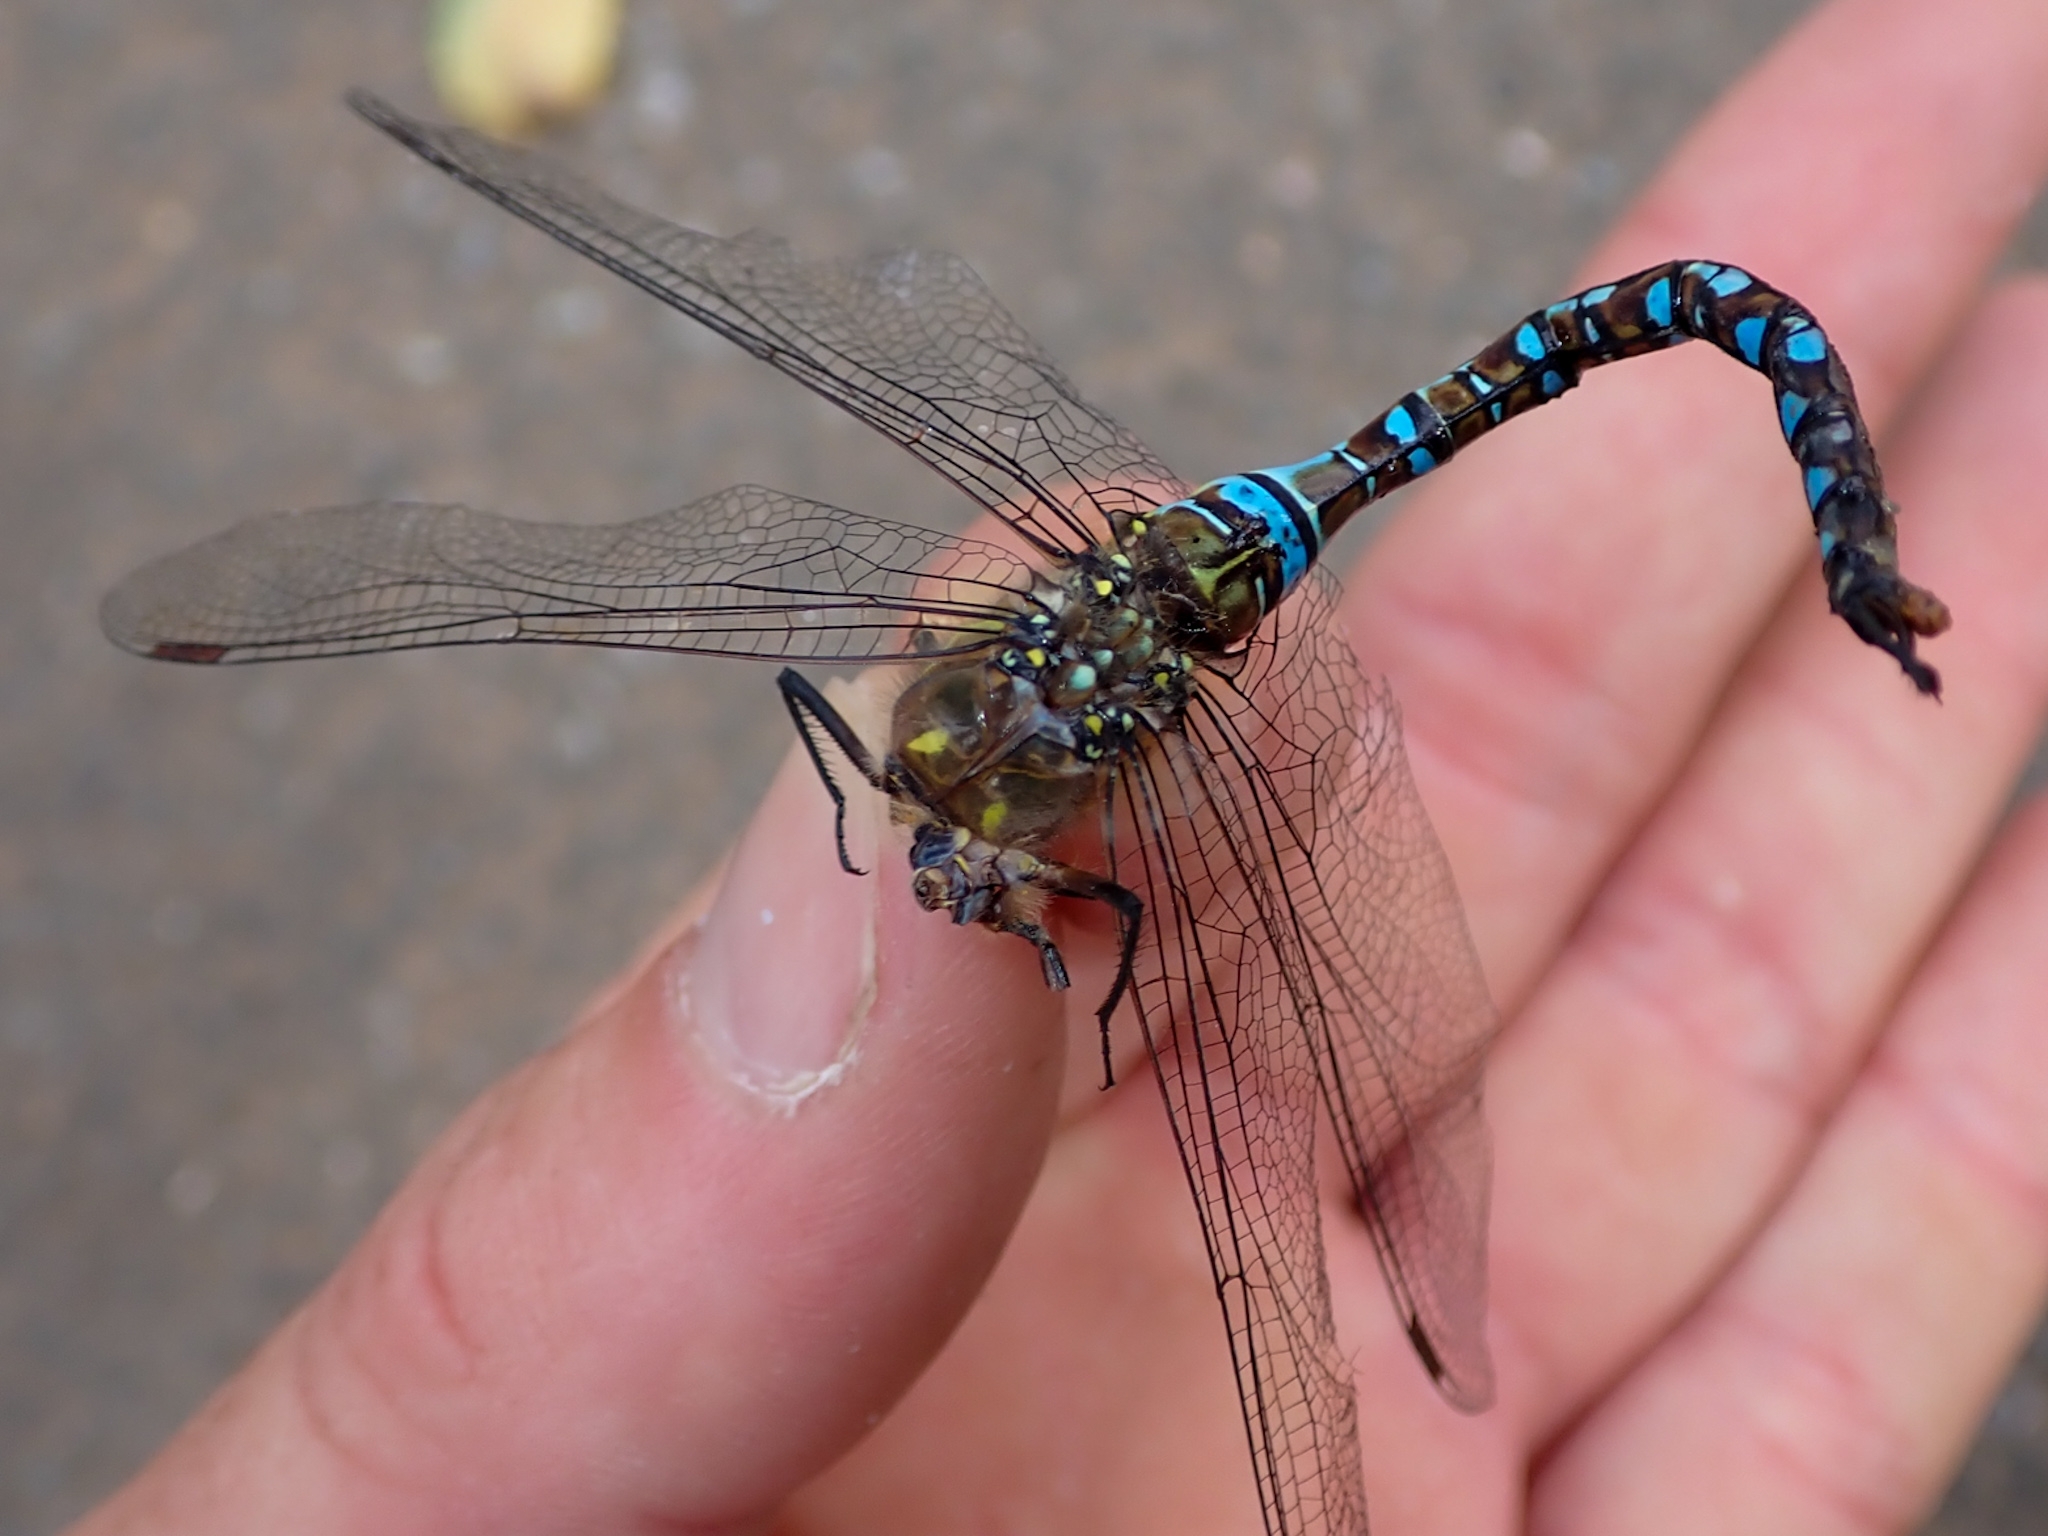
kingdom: Animalia
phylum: Arthropoda
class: Insecta
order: Odonata
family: Aeshnidae
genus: Aeshna
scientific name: Aeshna mixta
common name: Migrant hawker
